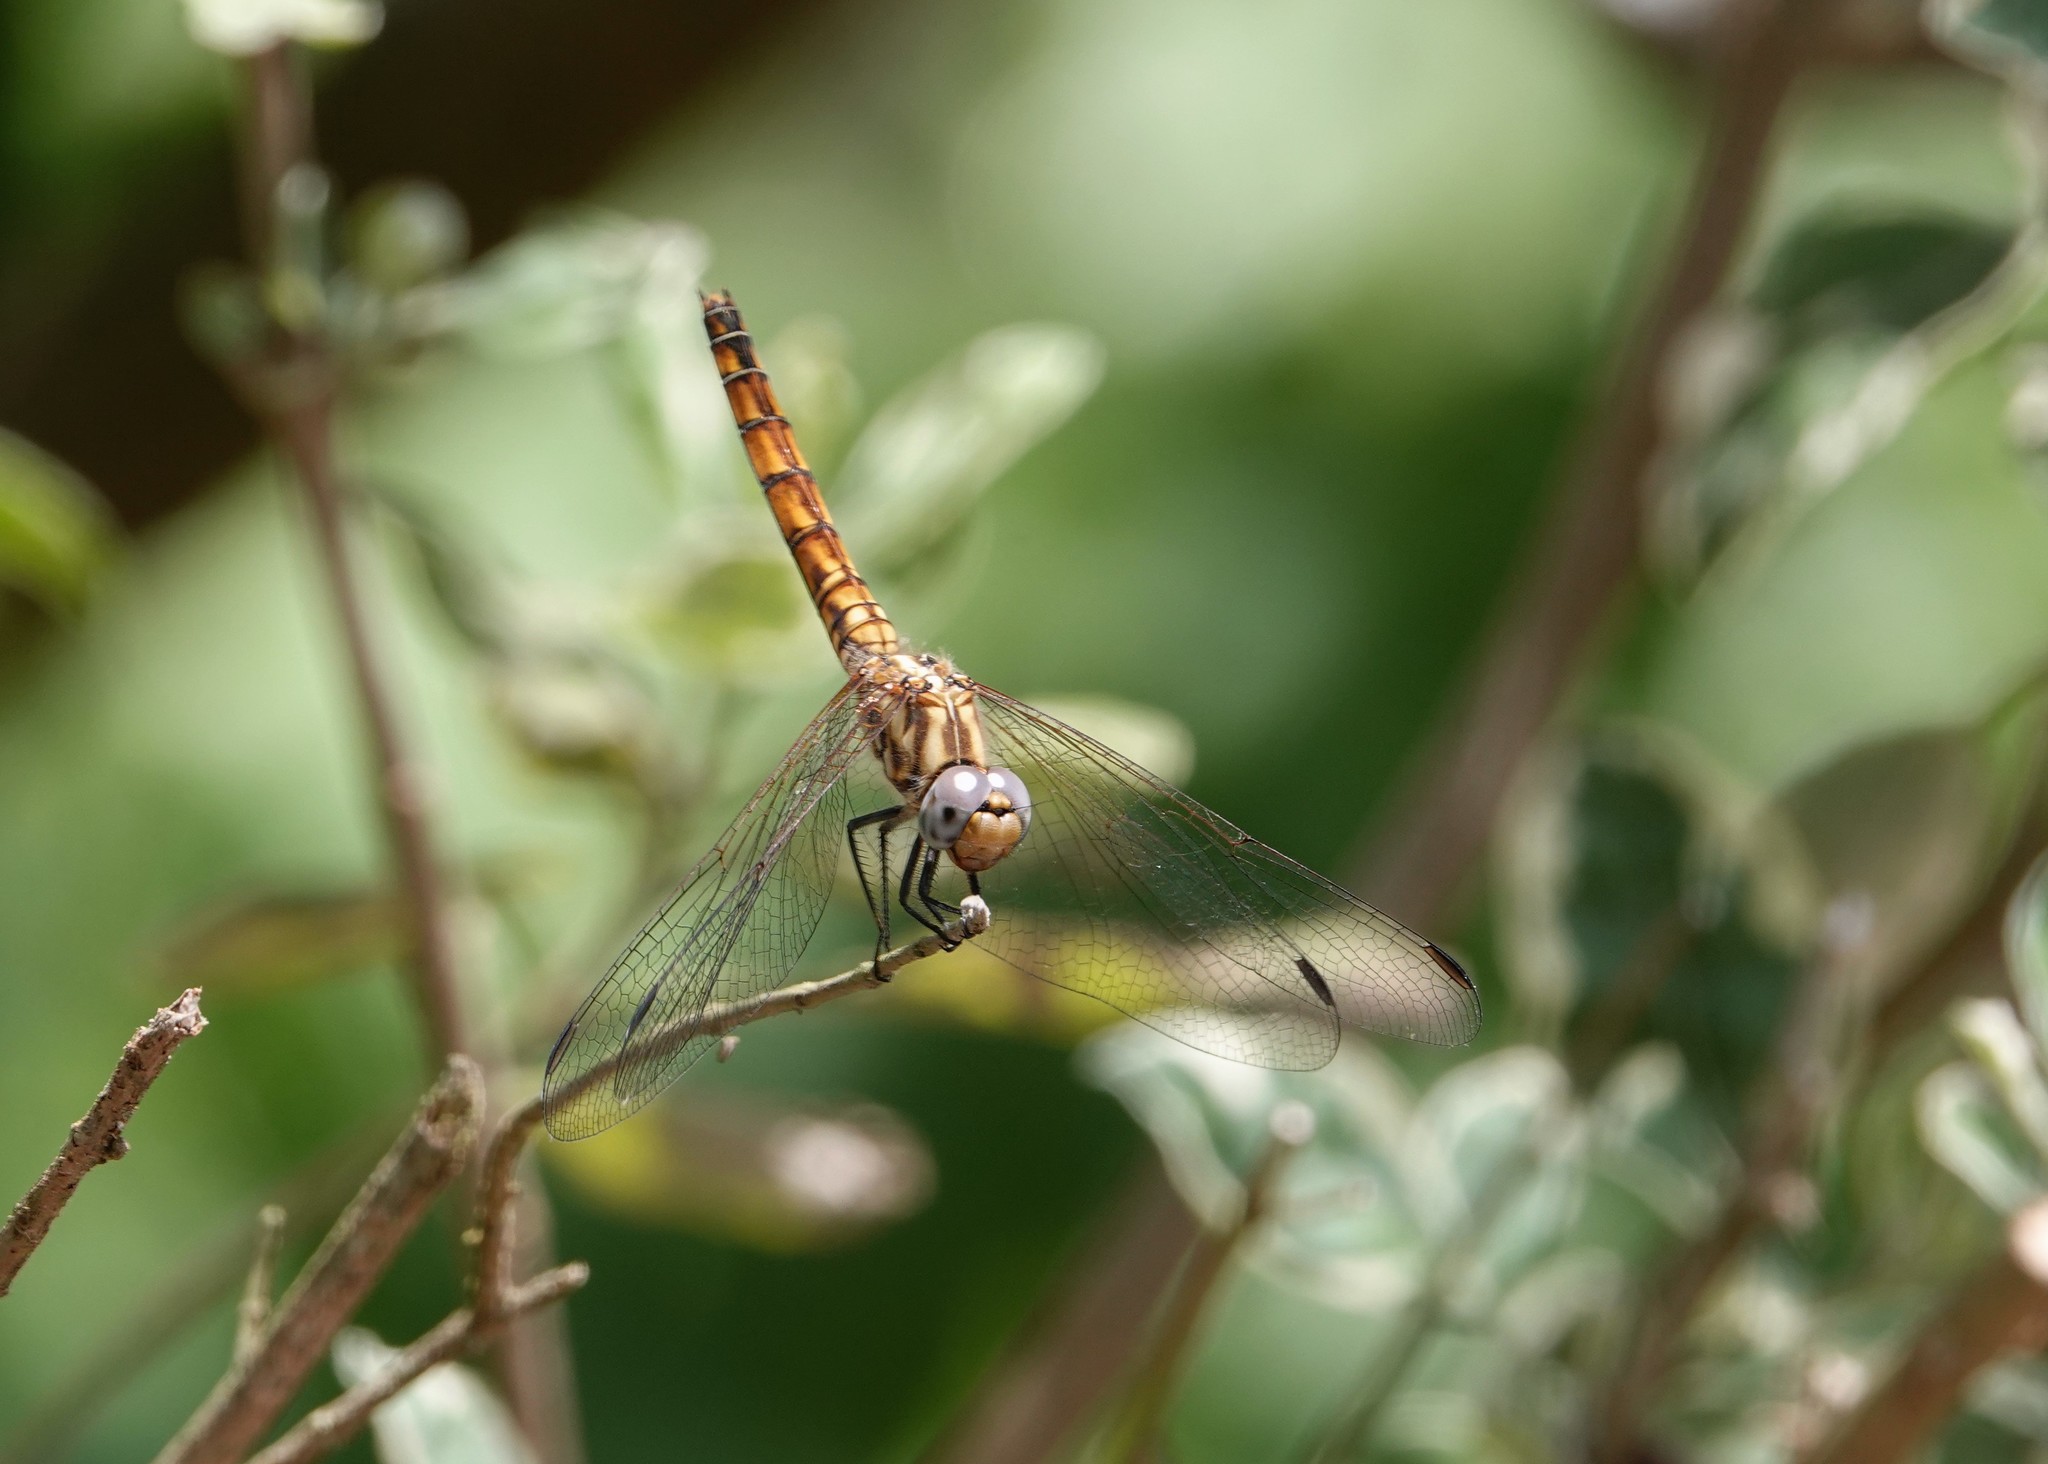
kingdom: Animalia
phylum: Arthropoda
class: Insecta
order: Odonata
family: Libellulidae
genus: Trithemis
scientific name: Trithemis annulata
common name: Violet dropwing
